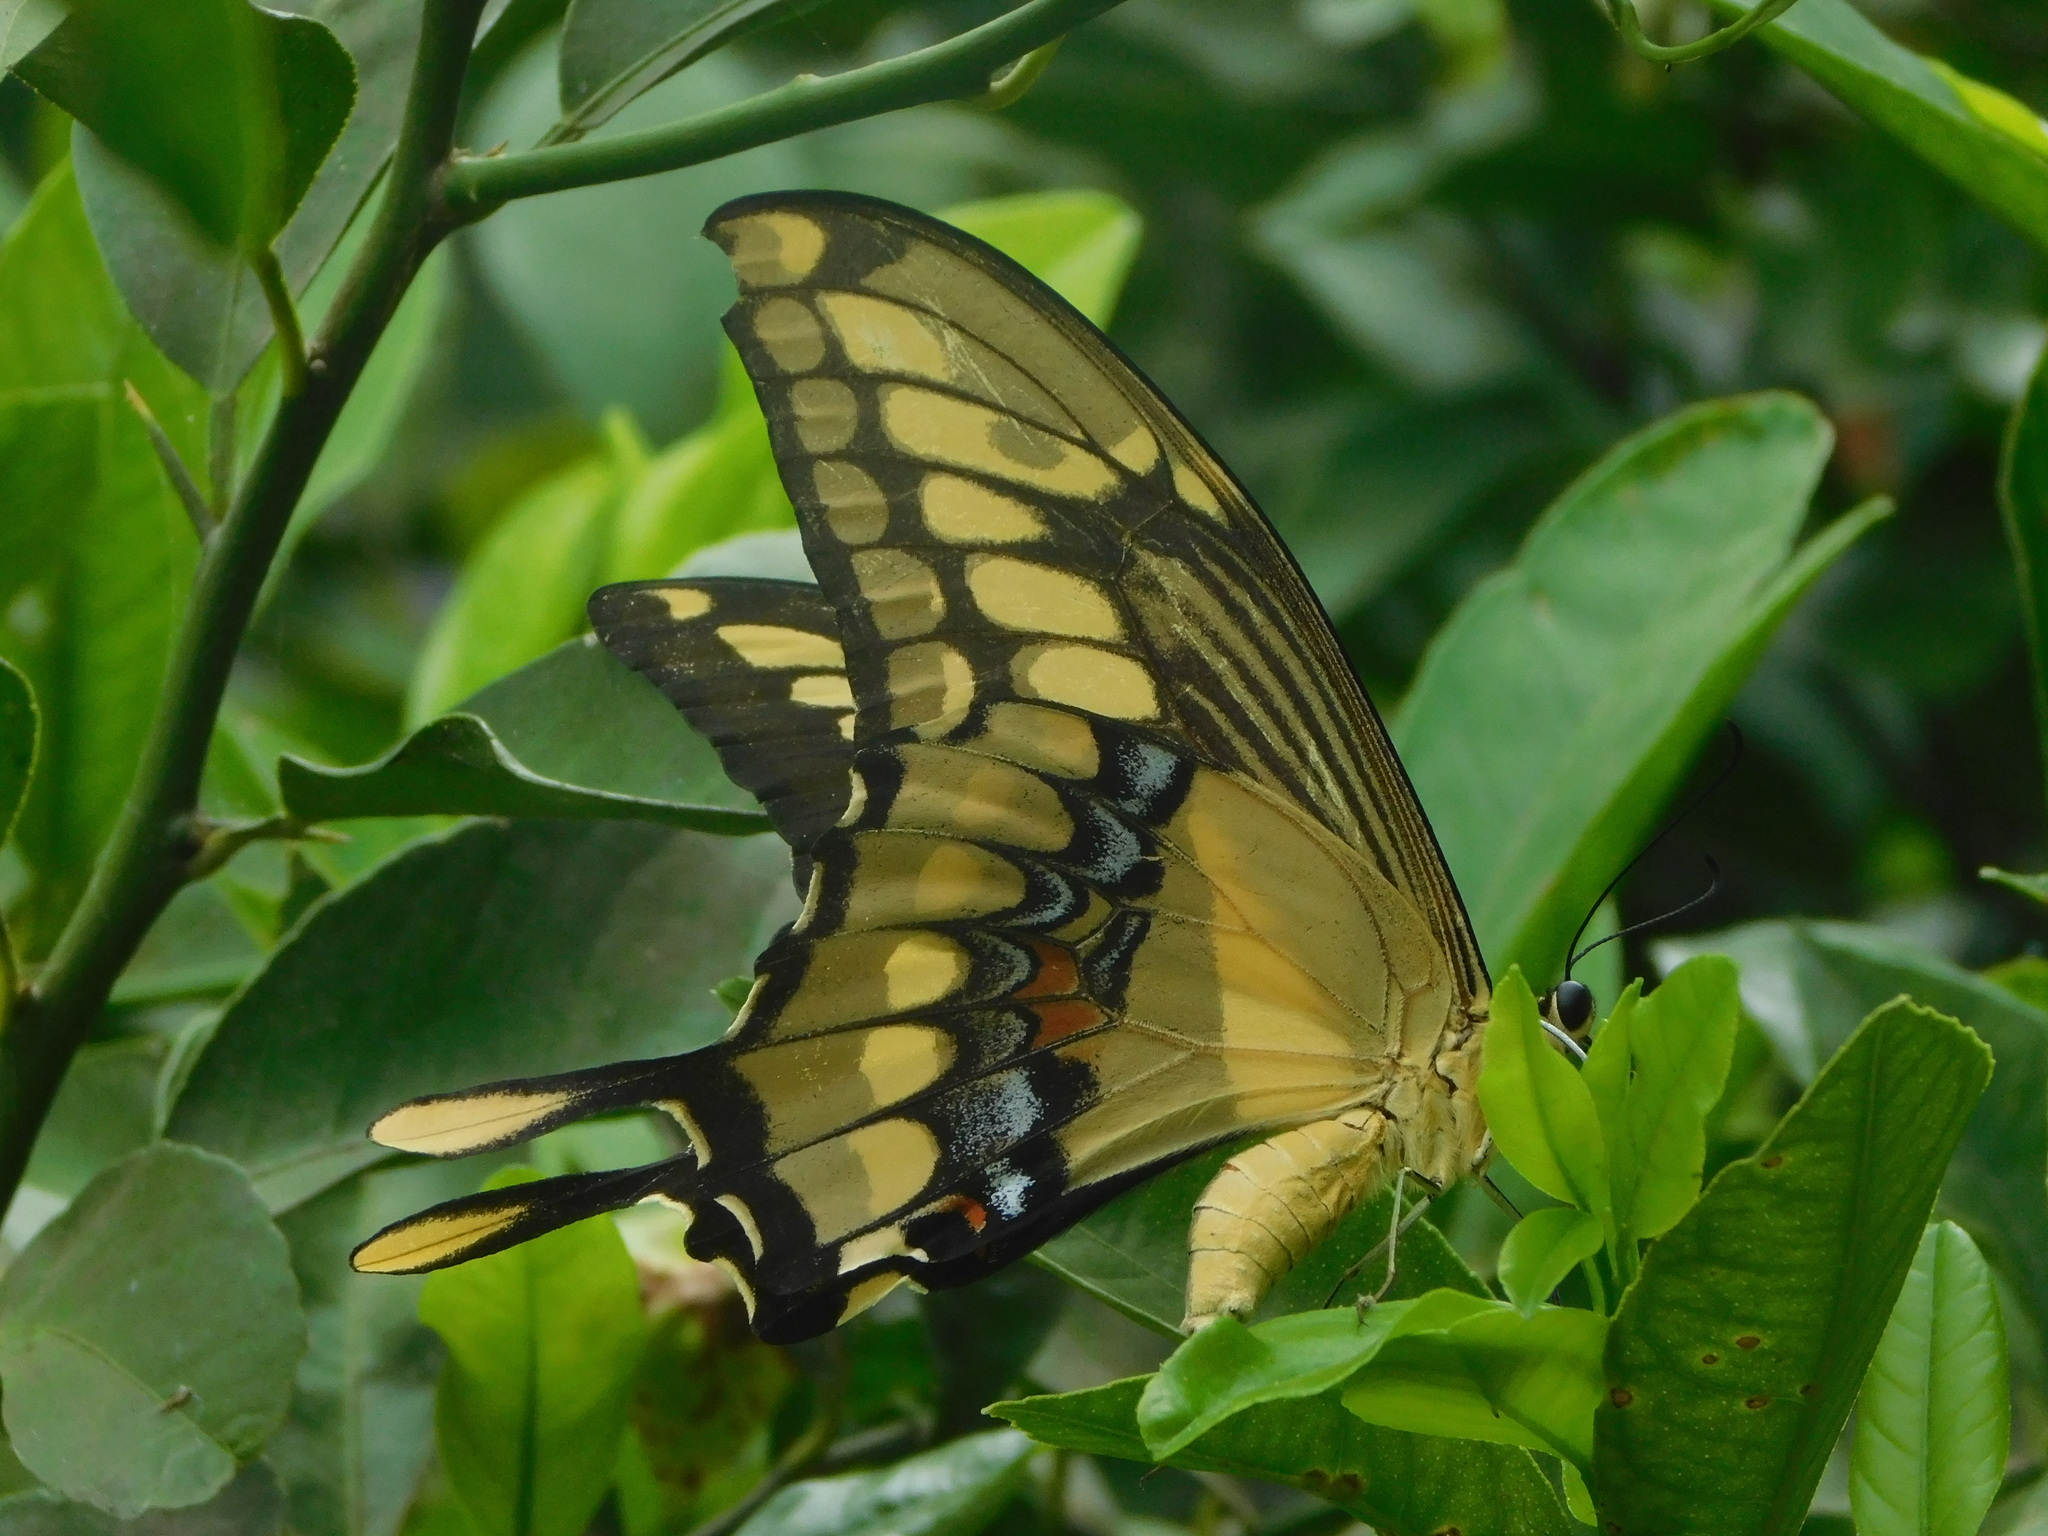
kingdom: Animalia
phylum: Arthropoda
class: Insecta
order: Lepidoptera
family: Papilionidae
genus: Papilio
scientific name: Papilio thoas
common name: King swallowtail
